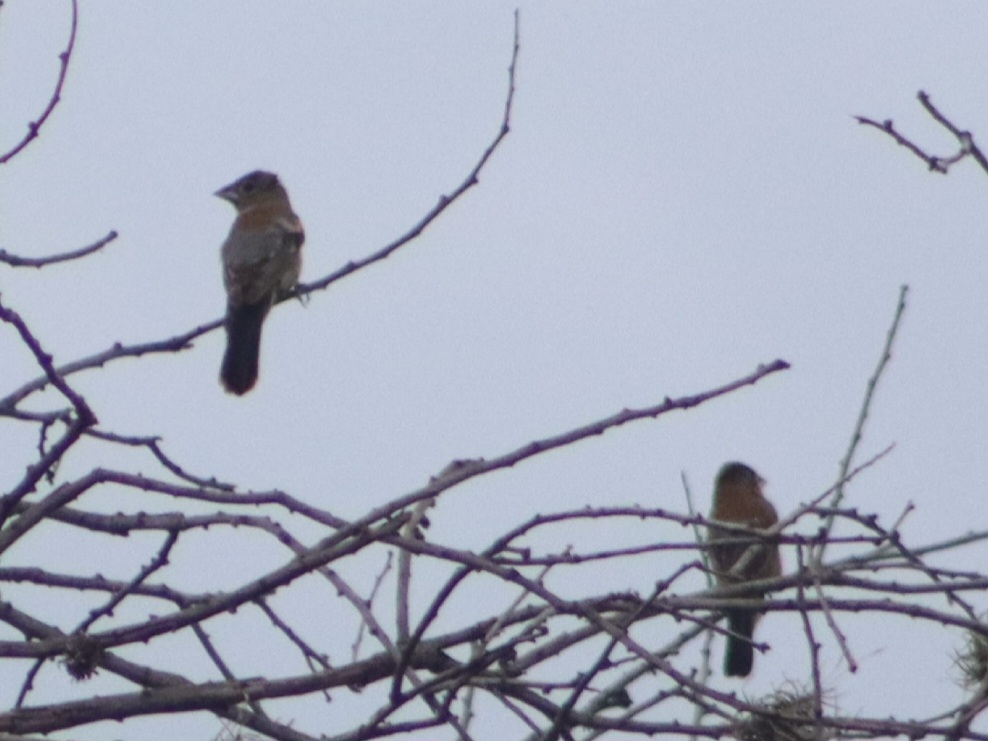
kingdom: Animalia
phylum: Chordata
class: Aves
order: Passeriformes
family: Cardinalidae
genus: Passerina
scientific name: Passerina caerulea
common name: Blue grosbeak
